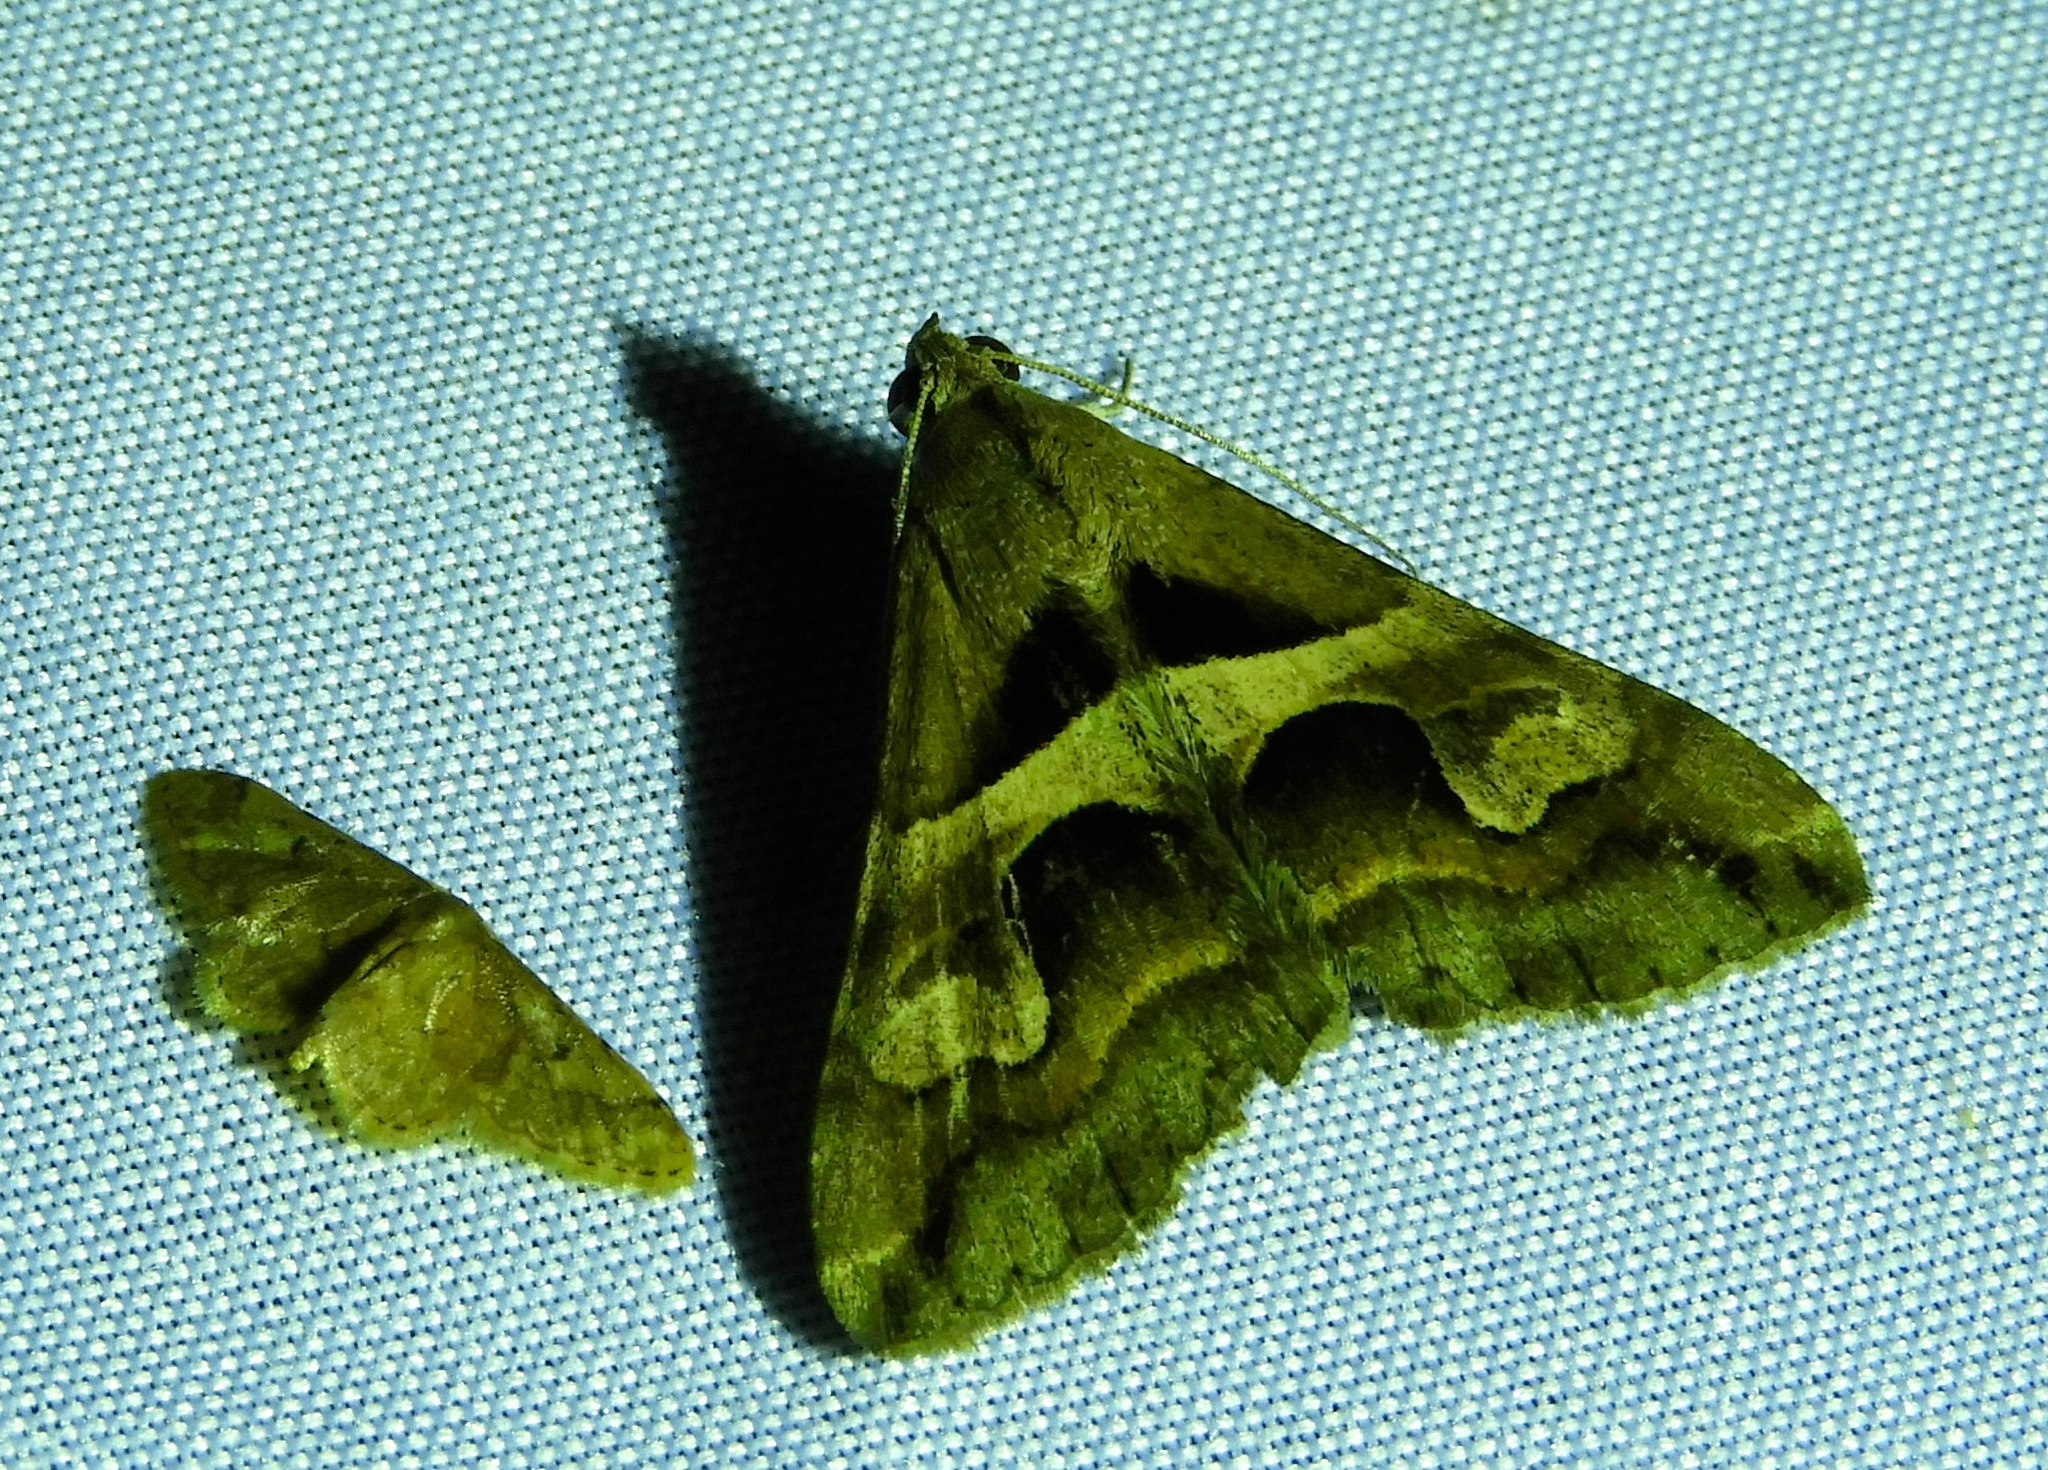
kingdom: Animalia
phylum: Arthropoda
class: Insecta
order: Lepidoptera
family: Erebidae
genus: Melipotis
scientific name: Melipotis cellaris
